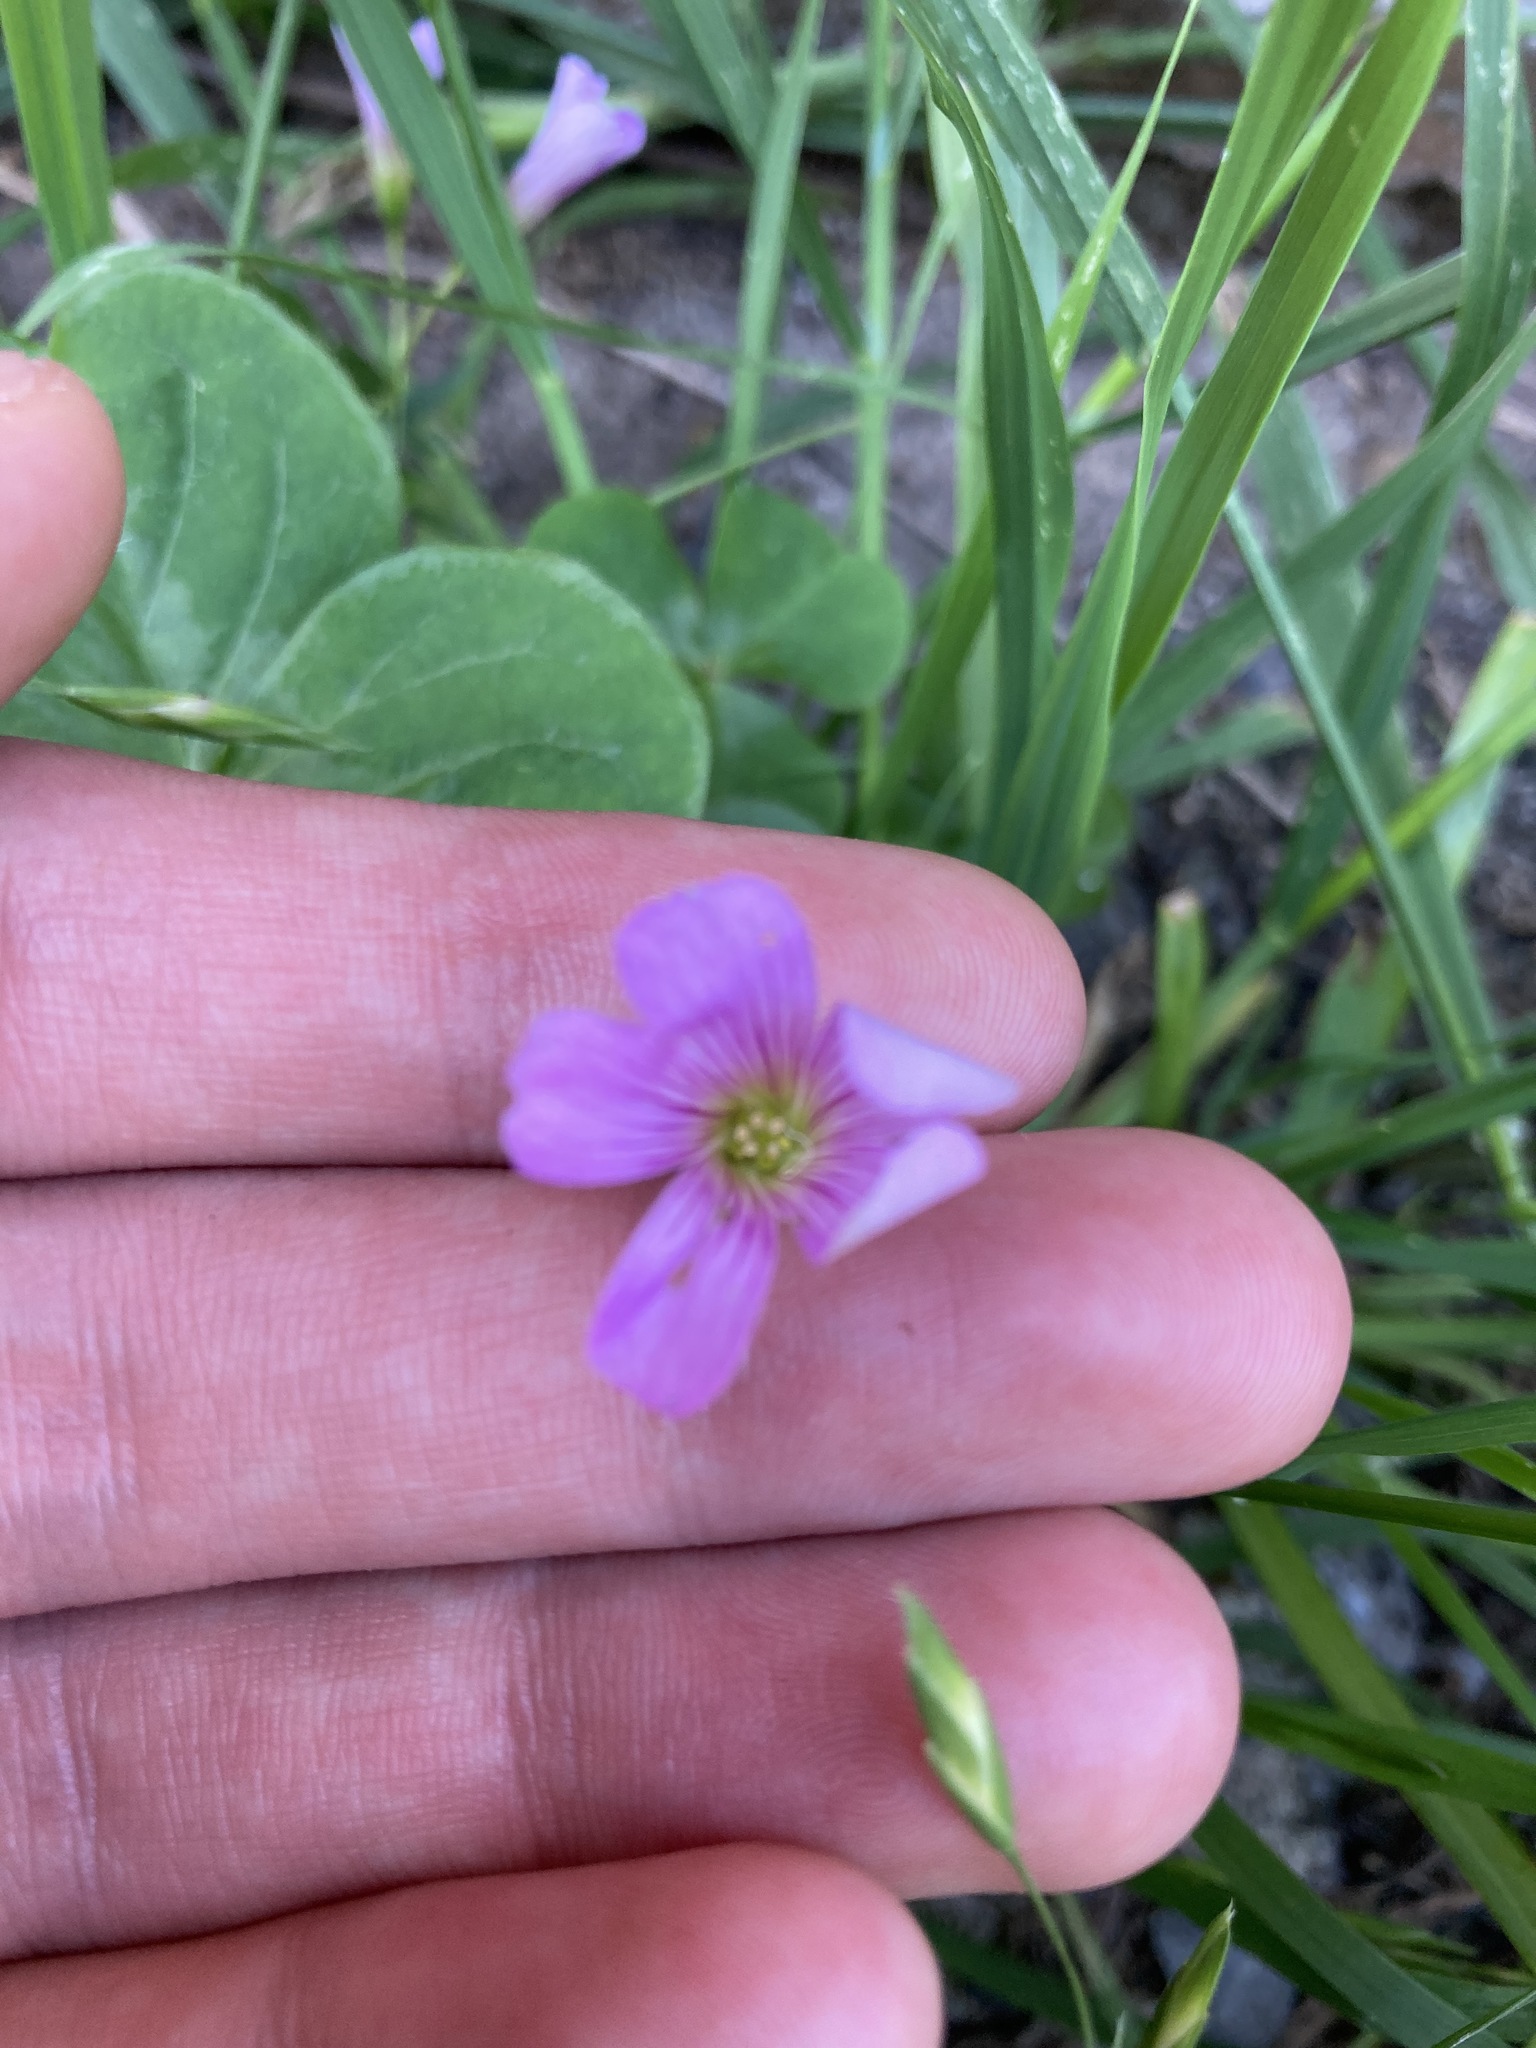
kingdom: Plantae
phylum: Tracheophyta
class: Magnoliopsida
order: Oxalidales
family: Oxalidaceae
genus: Oxalis
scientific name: Oxalis debilis
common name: Large-flowered pink-sorrel
